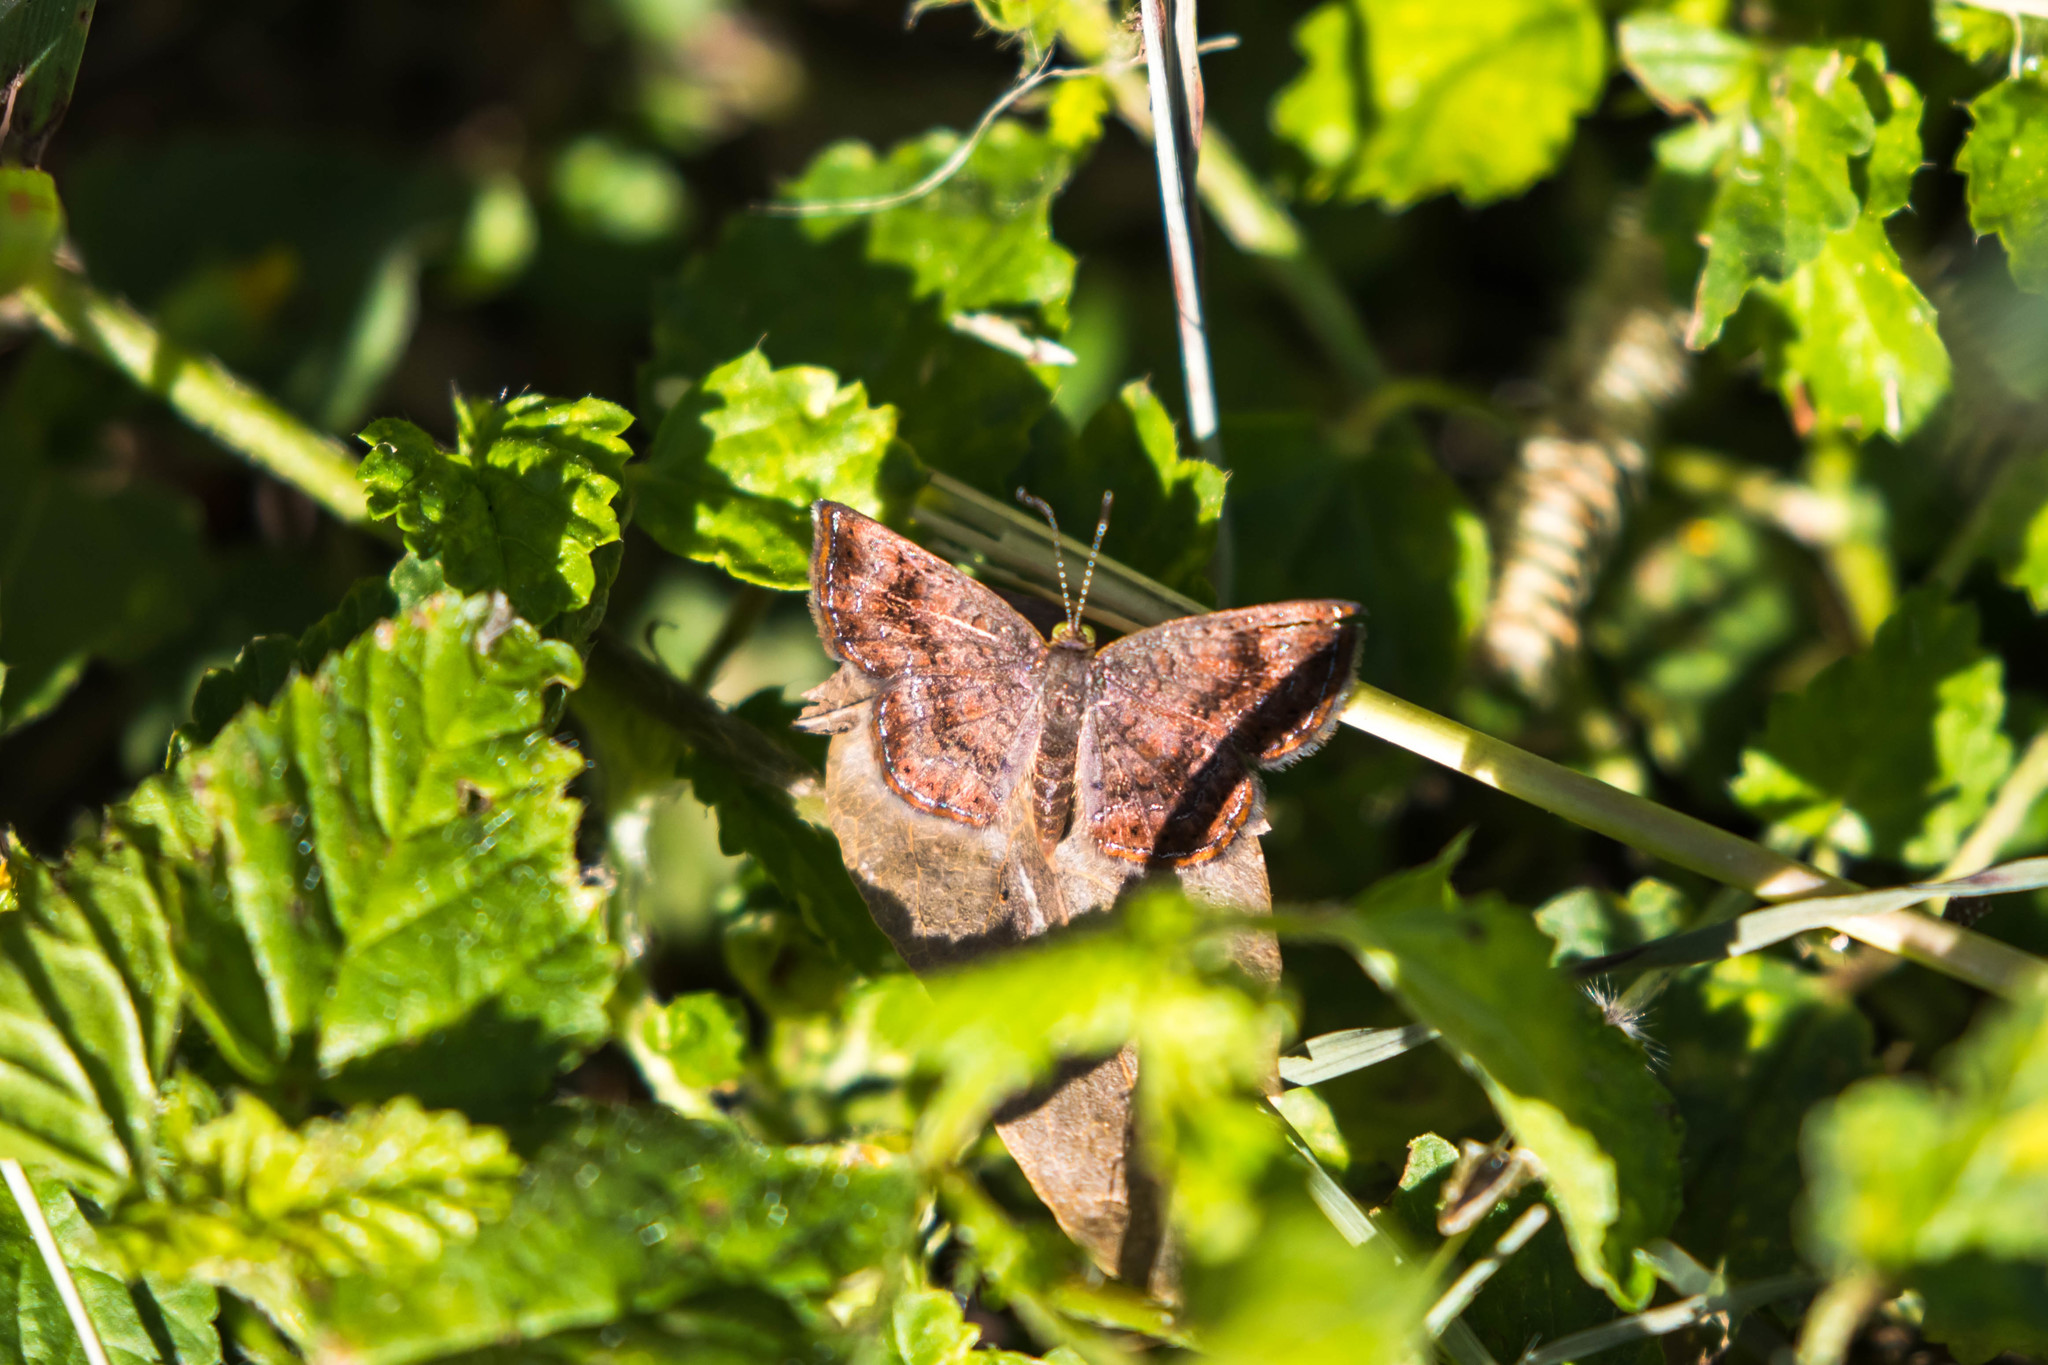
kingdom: Animalia
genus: Calephelis
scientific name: Calephelis perditalis
